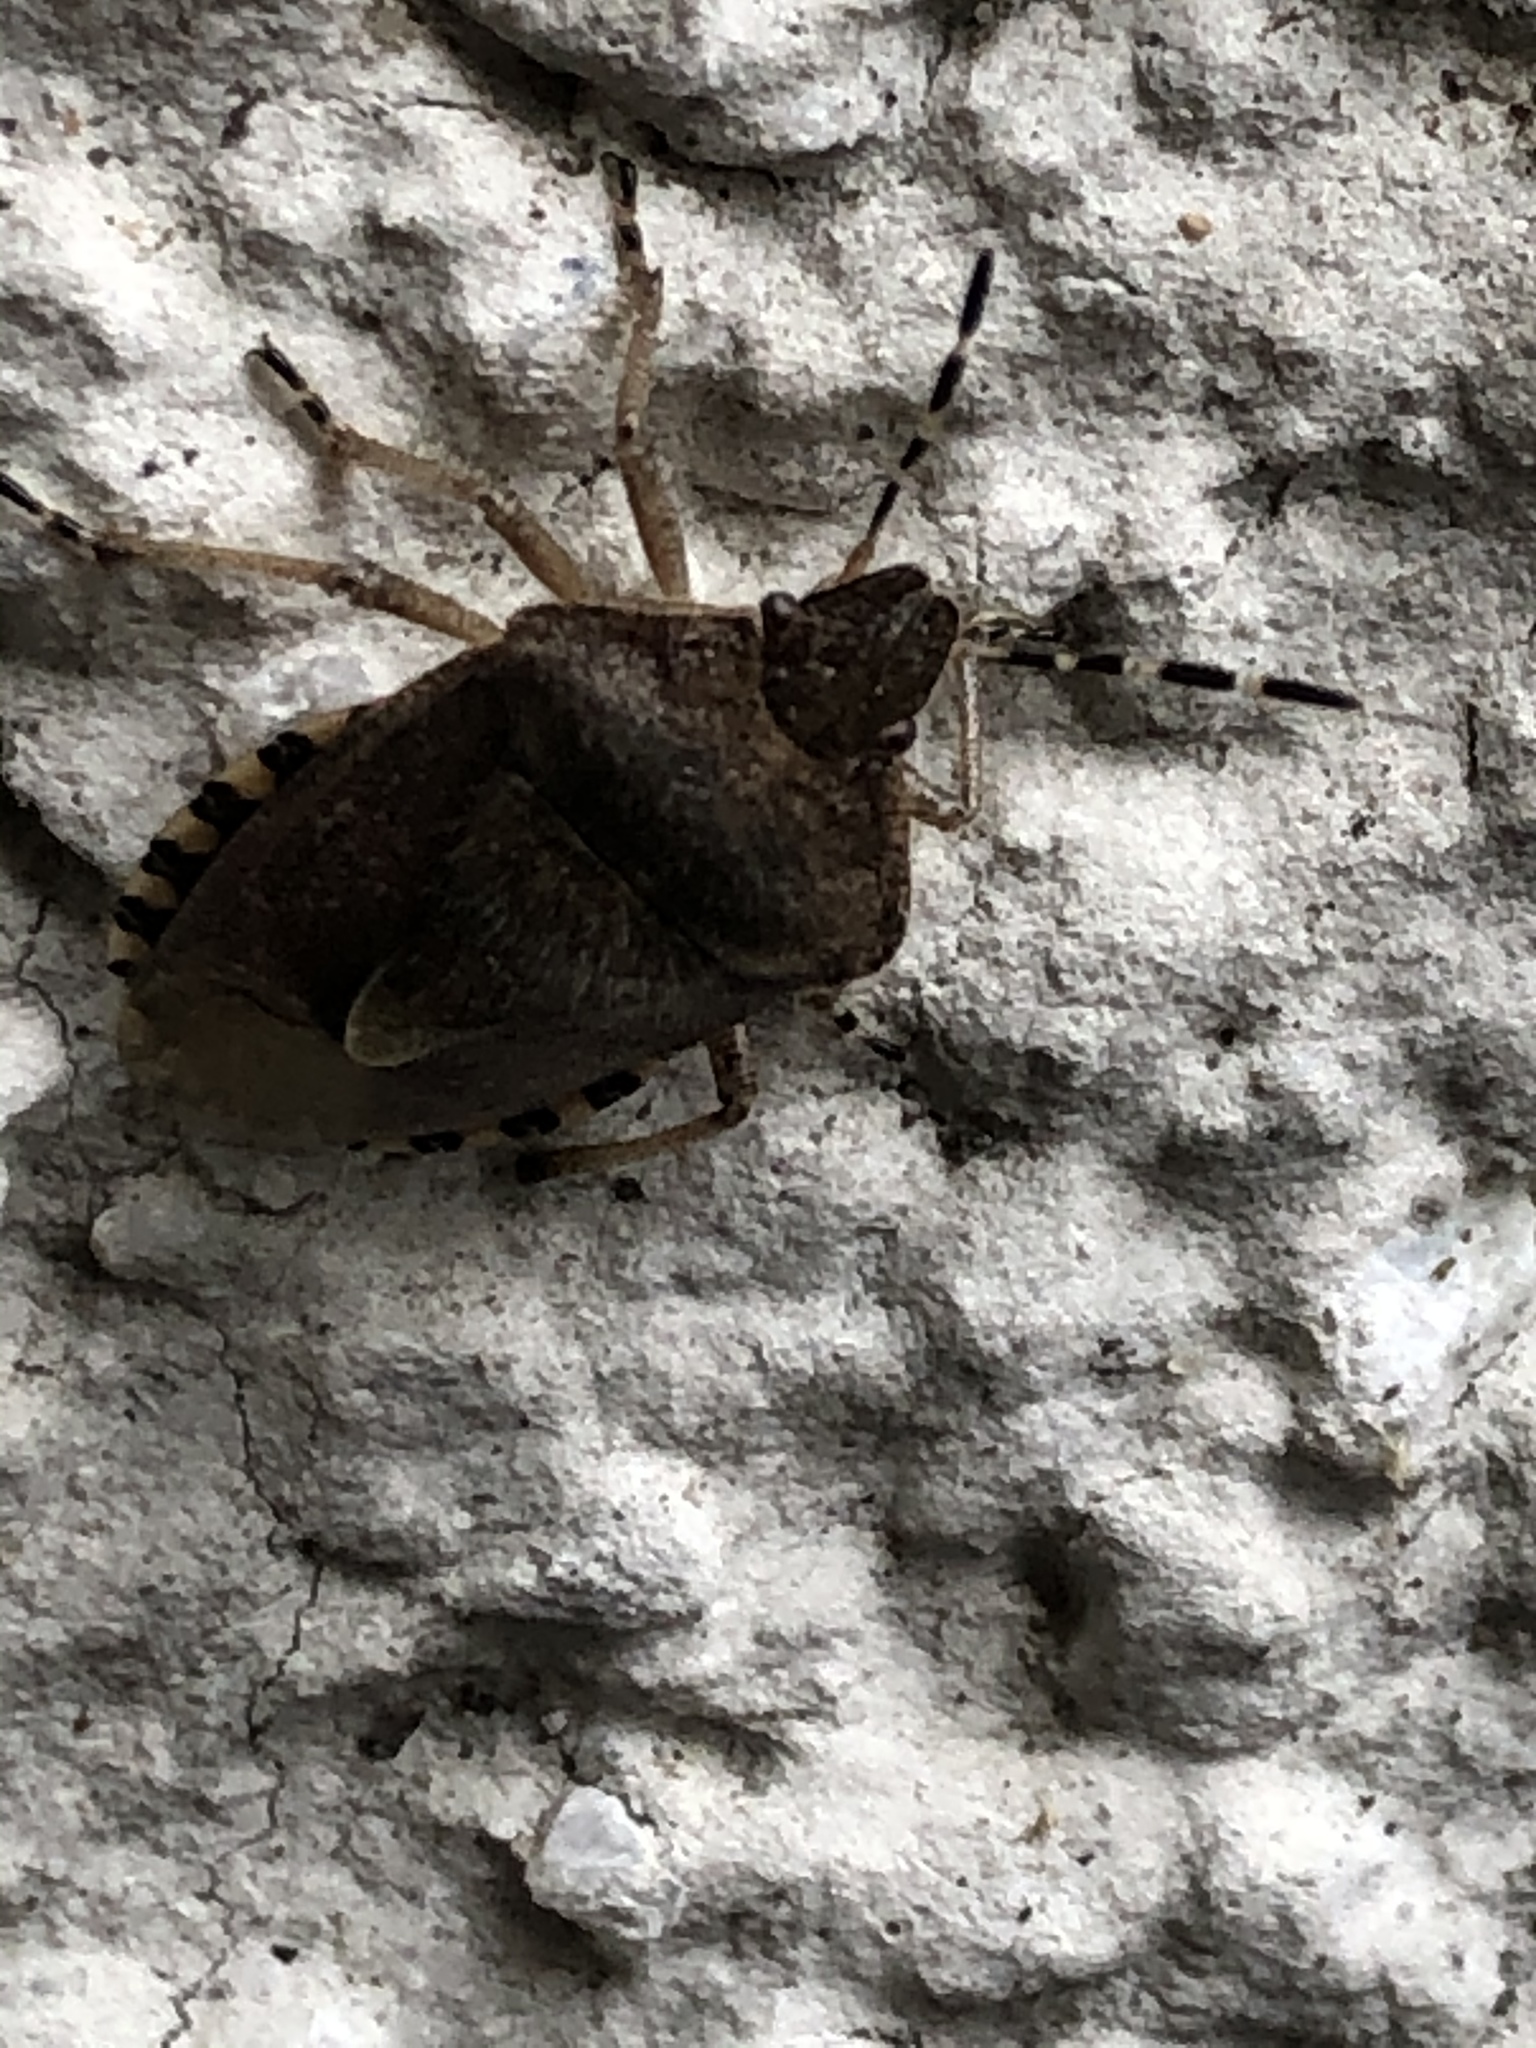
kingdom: Animalia
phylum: Arthropoda
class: Insecta
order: Hemiptera
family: Pentatomidae
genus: Dolycoris
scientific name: Dolycoris baccarum
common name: Sloe bug
